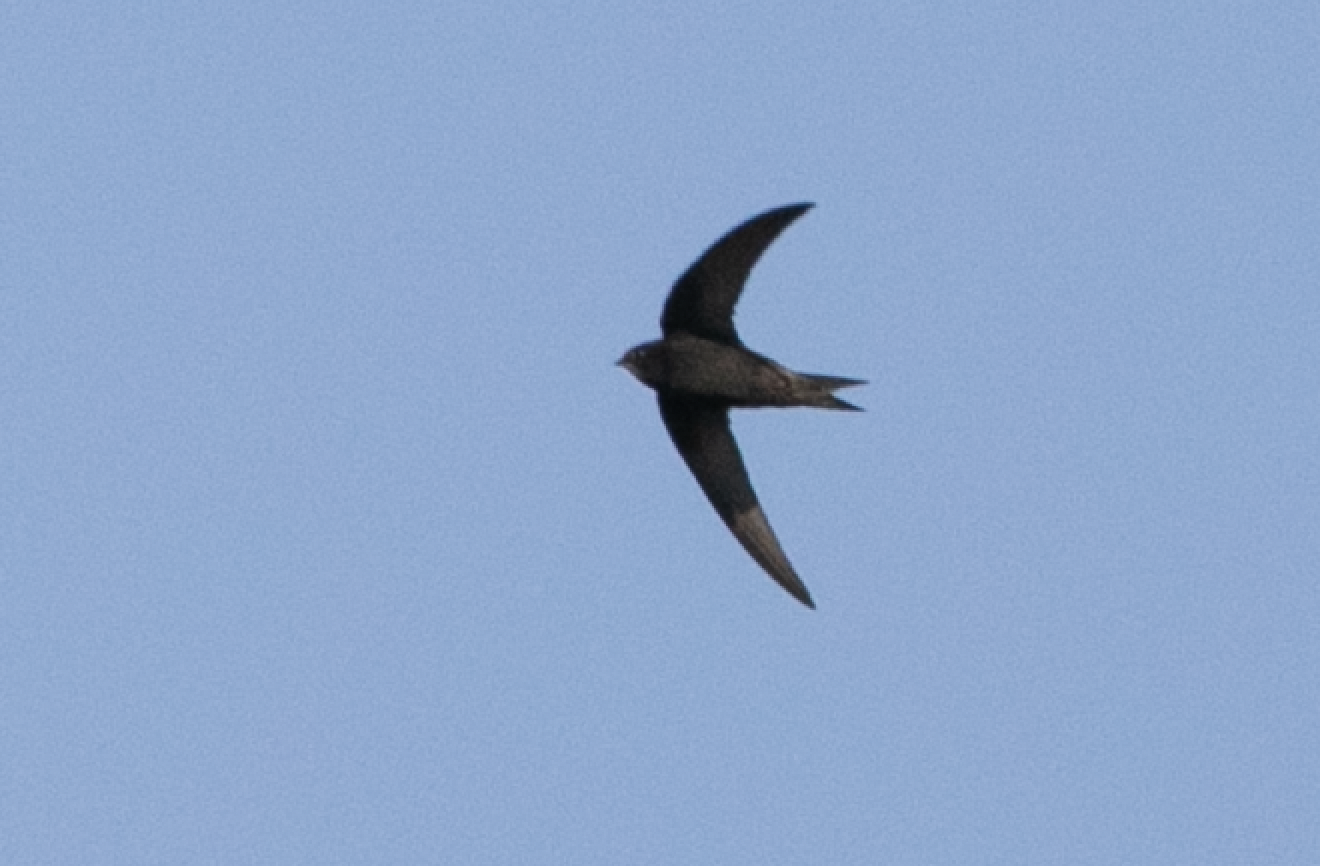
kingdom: Animalia
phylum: Chordata
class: Aves
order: Apodiformes
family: Apodidae
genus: Apus
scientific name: Apus apus
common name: Common swift
